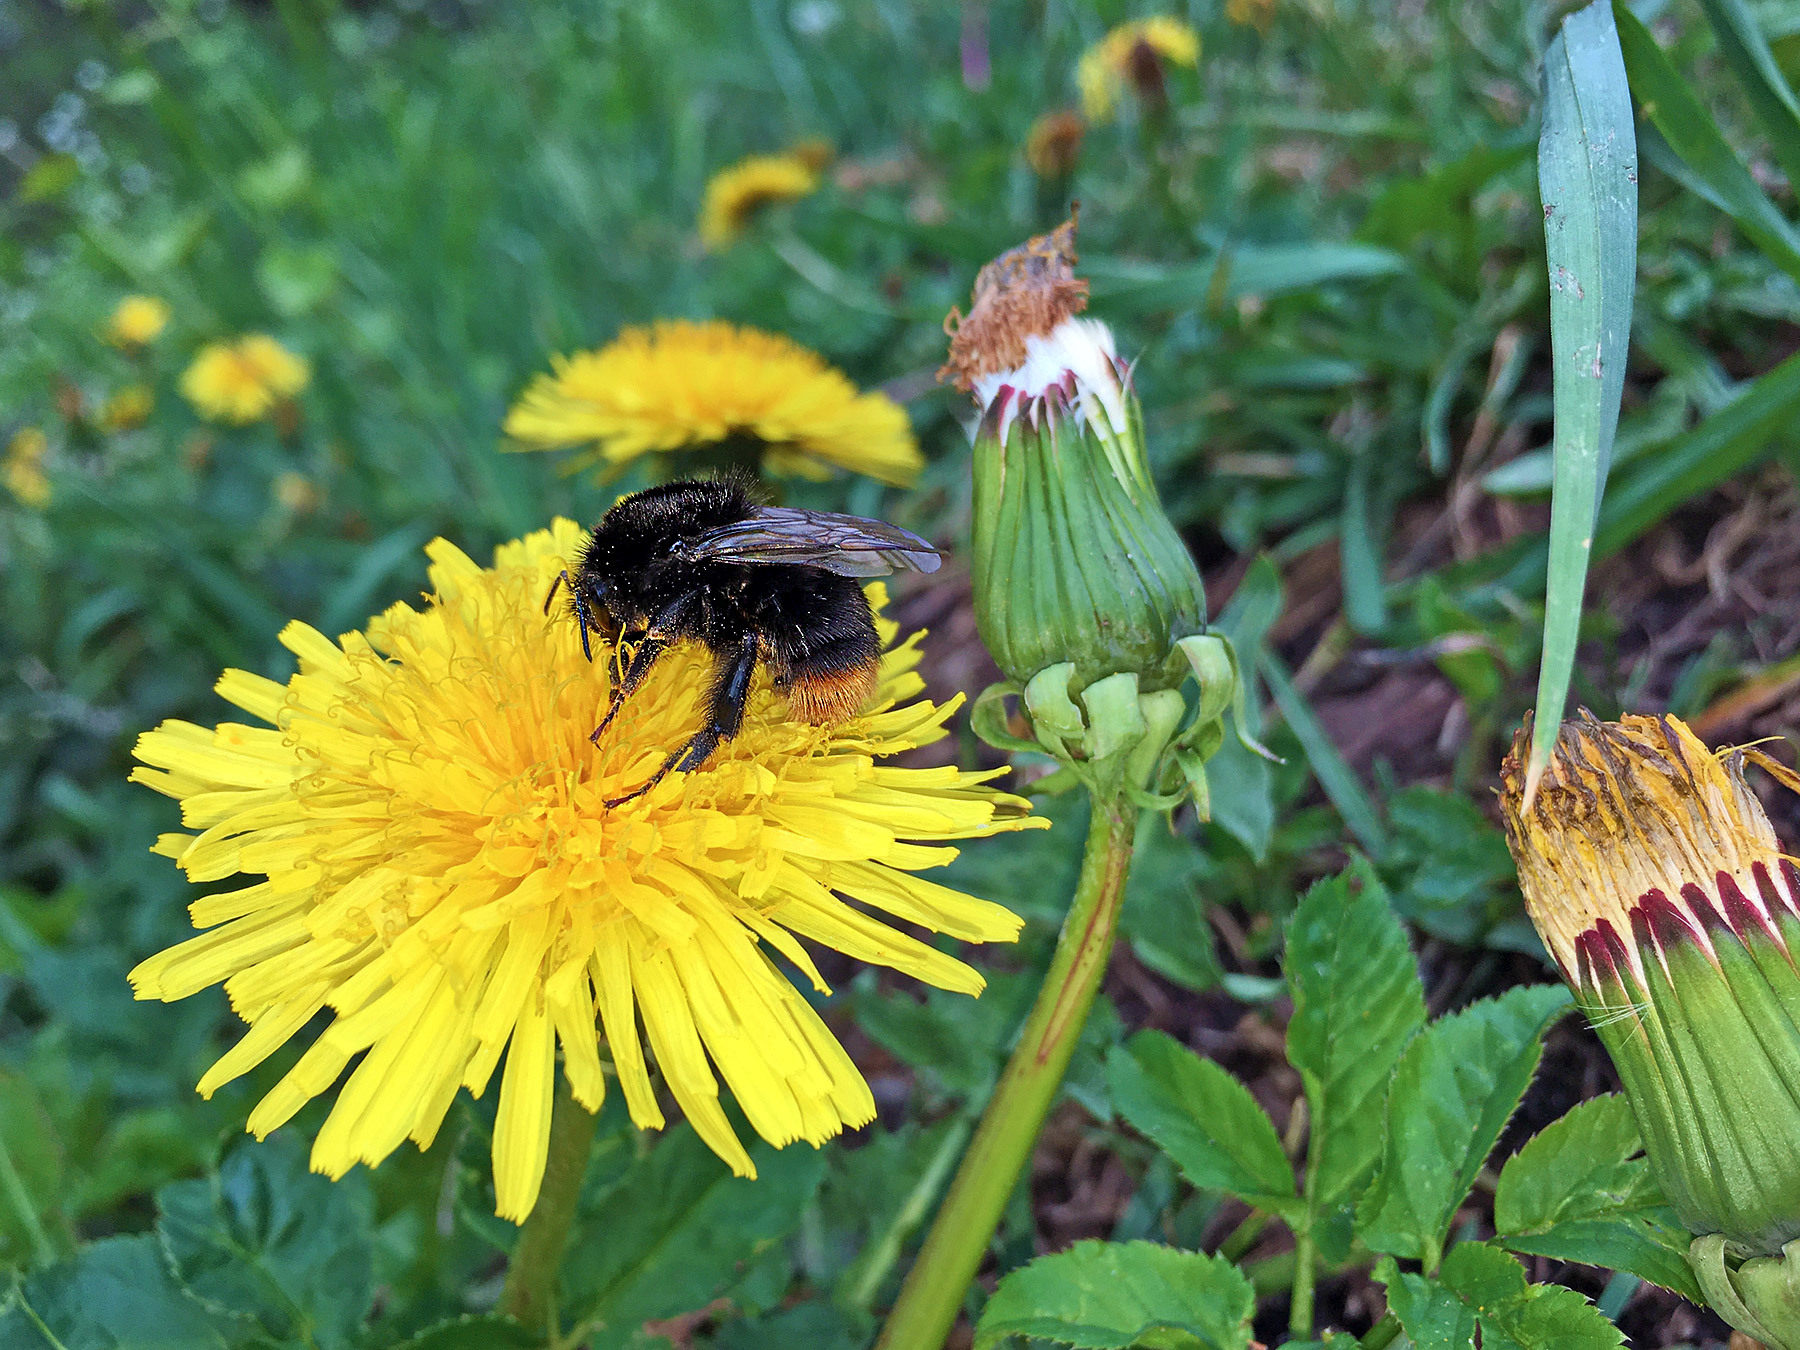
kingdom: Animalia
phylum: Arthropoda
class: Insecta
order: Hymenoptera
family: Apidae
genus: Bombus
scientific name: Bombus lapidarius
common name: Large red-tailed humble-bee
